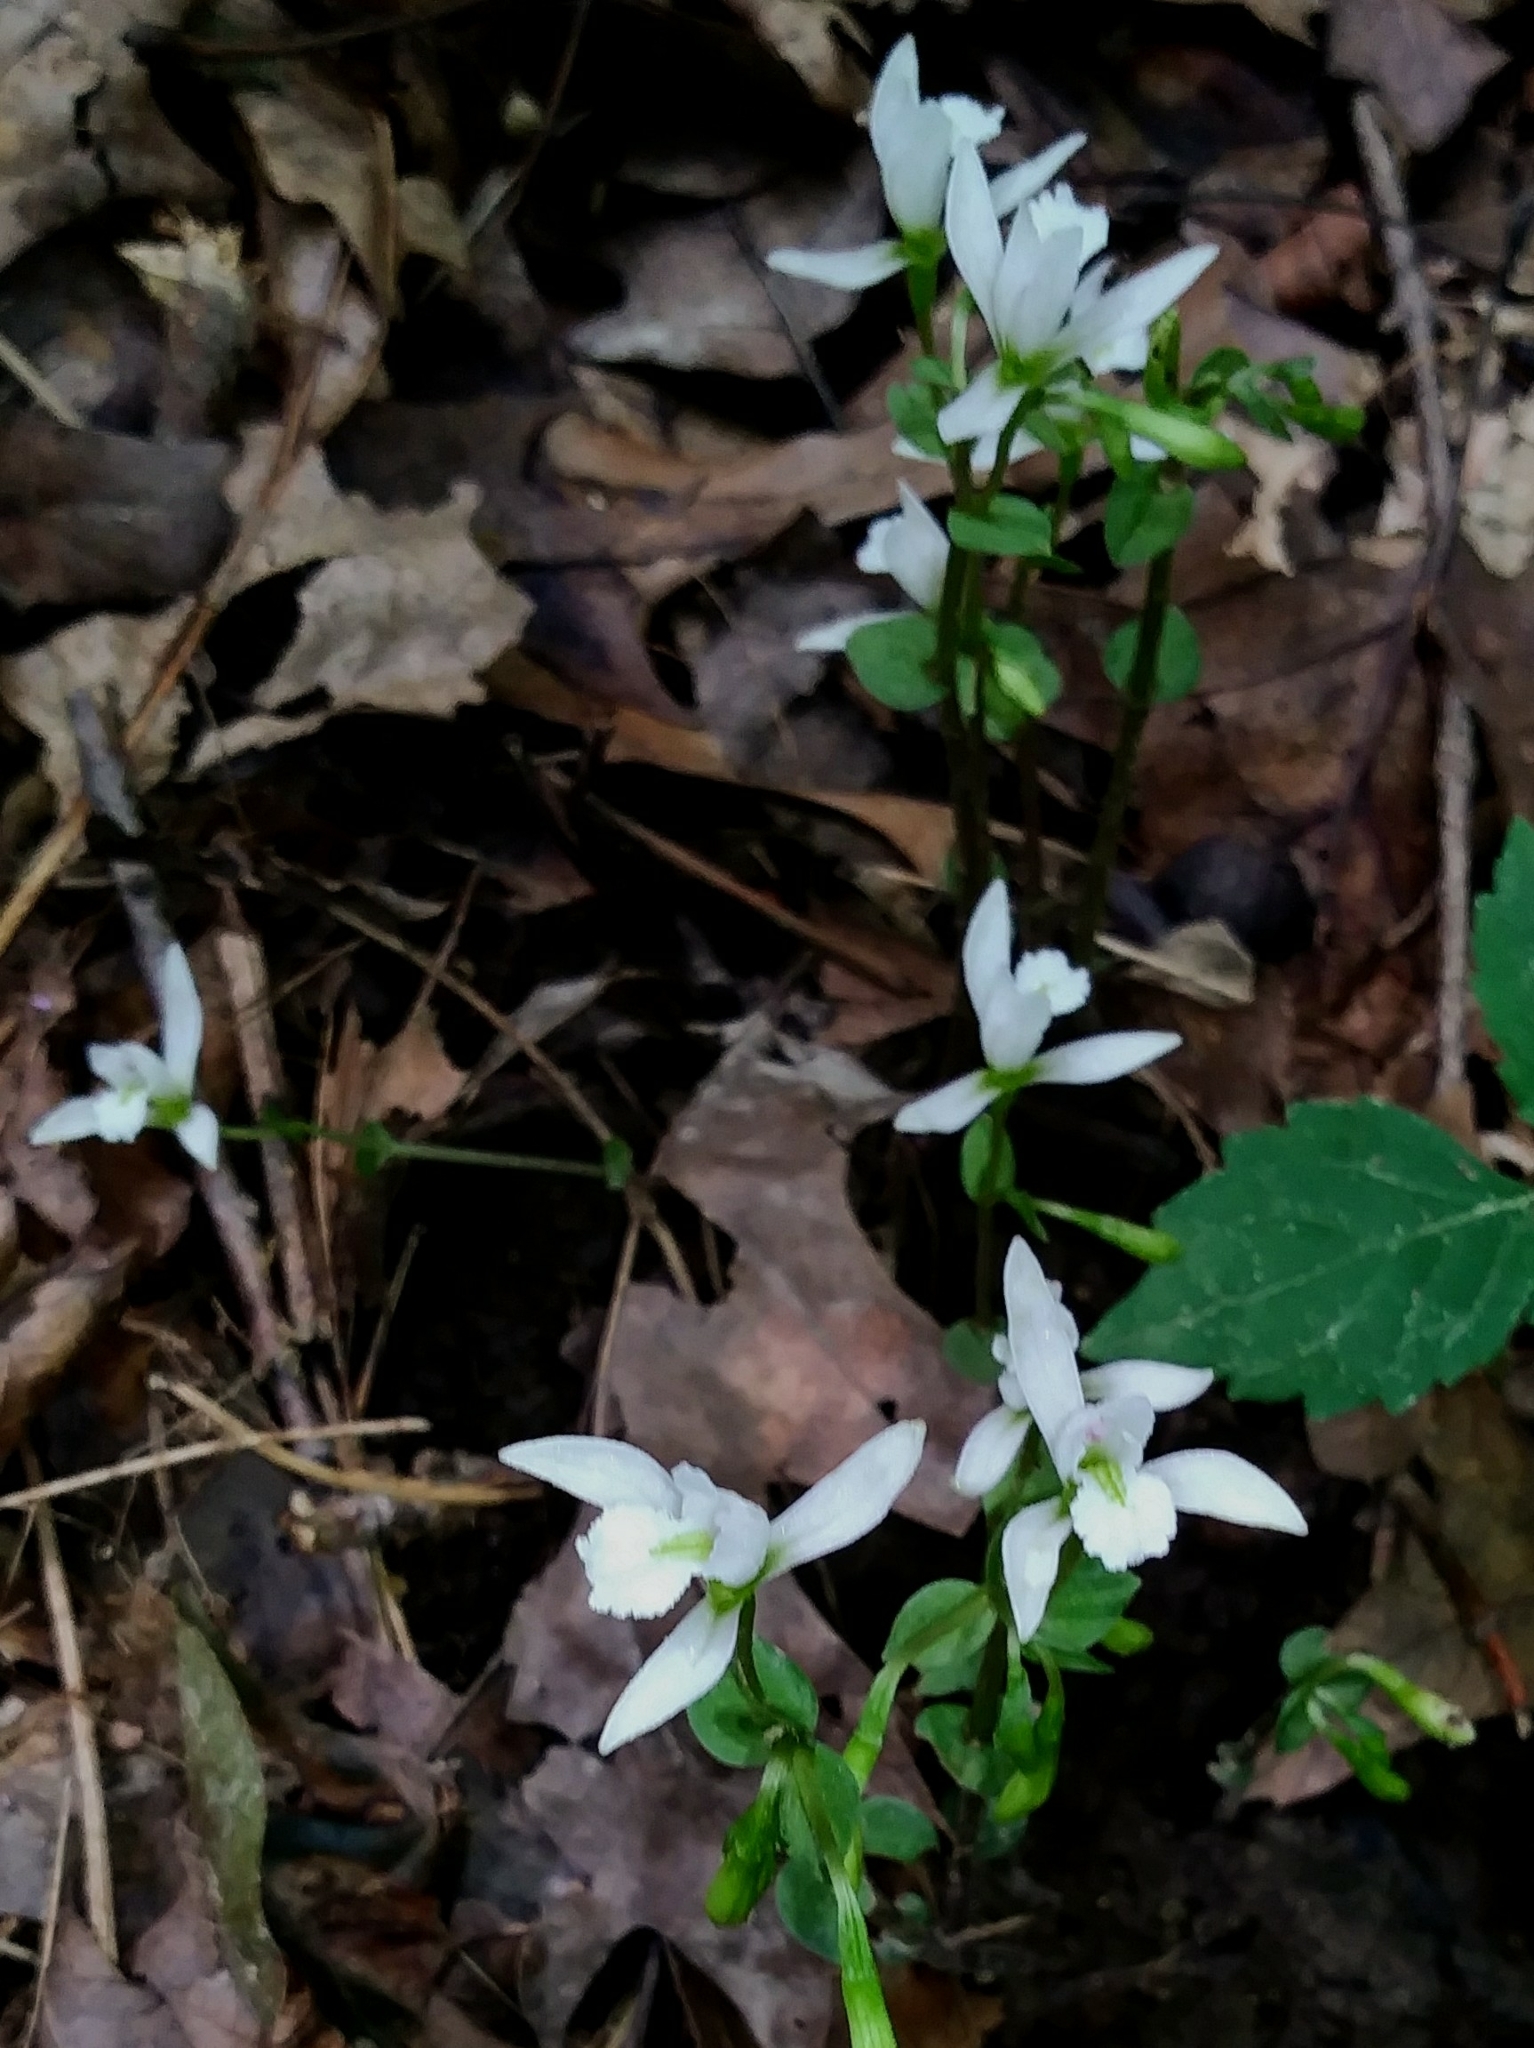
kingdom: Plantae
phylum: Tracheophyta
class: Liliopsida
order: Asparagales
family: Orchidaceae
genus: Triphora
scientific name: Triphora trianthophoros
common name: Three birds orchid
